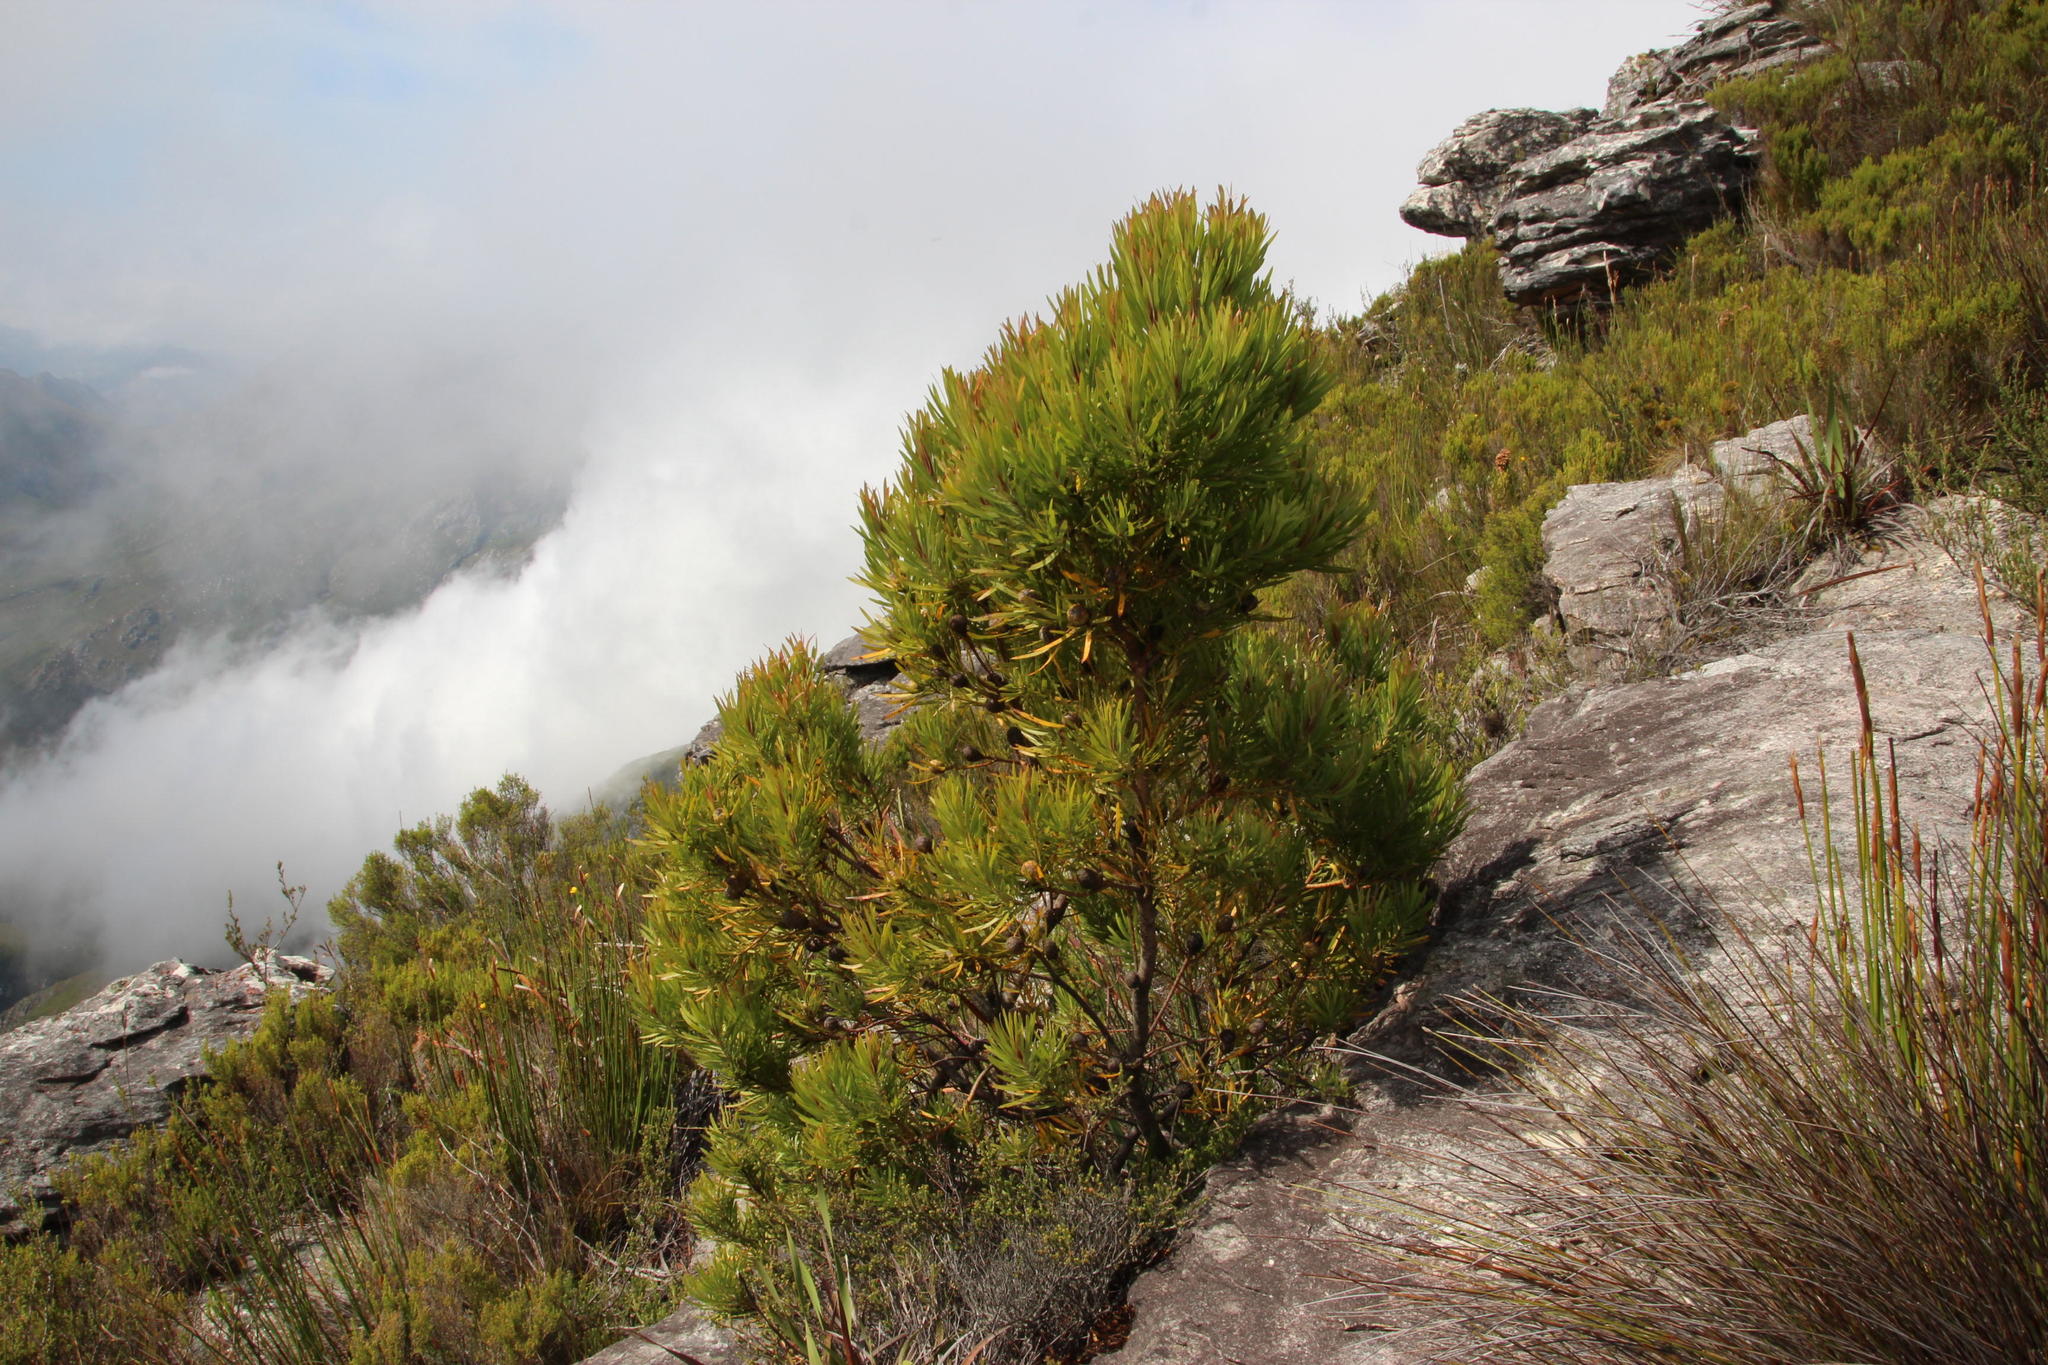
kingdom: Plantae
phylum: Tracheophyta
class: Magnoliopsida
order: Proteales
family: Proteaceae
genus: Leucadendron
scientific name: Leucadendron eucalyptifolium
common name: Gum-leaved conebush
